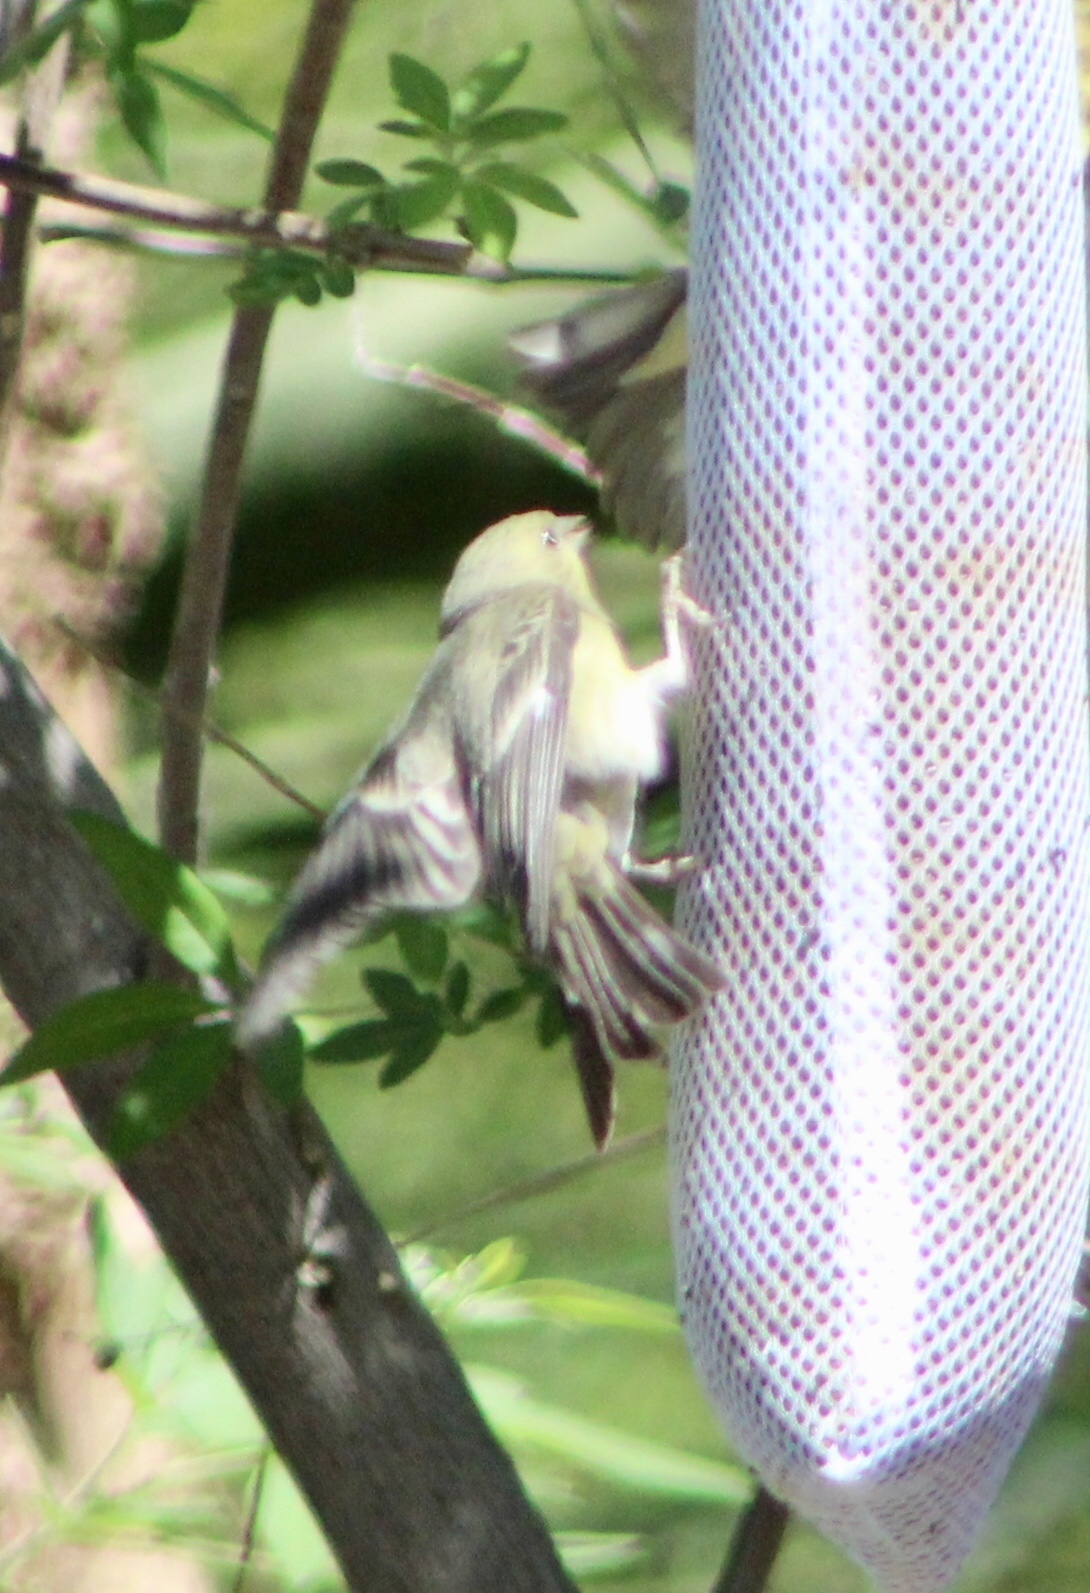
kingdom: Animalia
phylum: Chordata
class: Aves
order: Passeriformes
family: Fringillidae
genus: Spinus
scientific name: Spinus psaltria
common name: Lesser goldfinch
